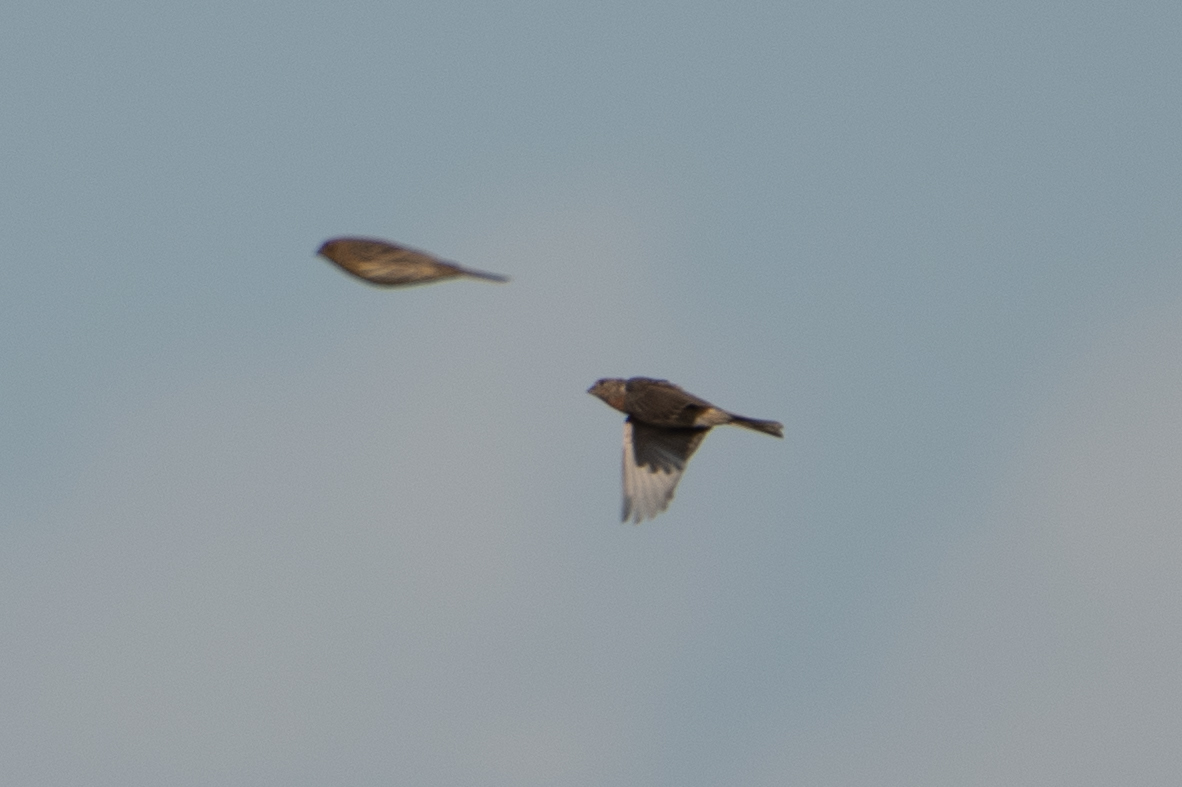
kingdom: Animalia
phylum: Chordata
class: Aves
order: Passeriformes
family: Fringillidae
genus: Haemorhous
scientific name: Haemorhous mexicanus
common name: House finch
